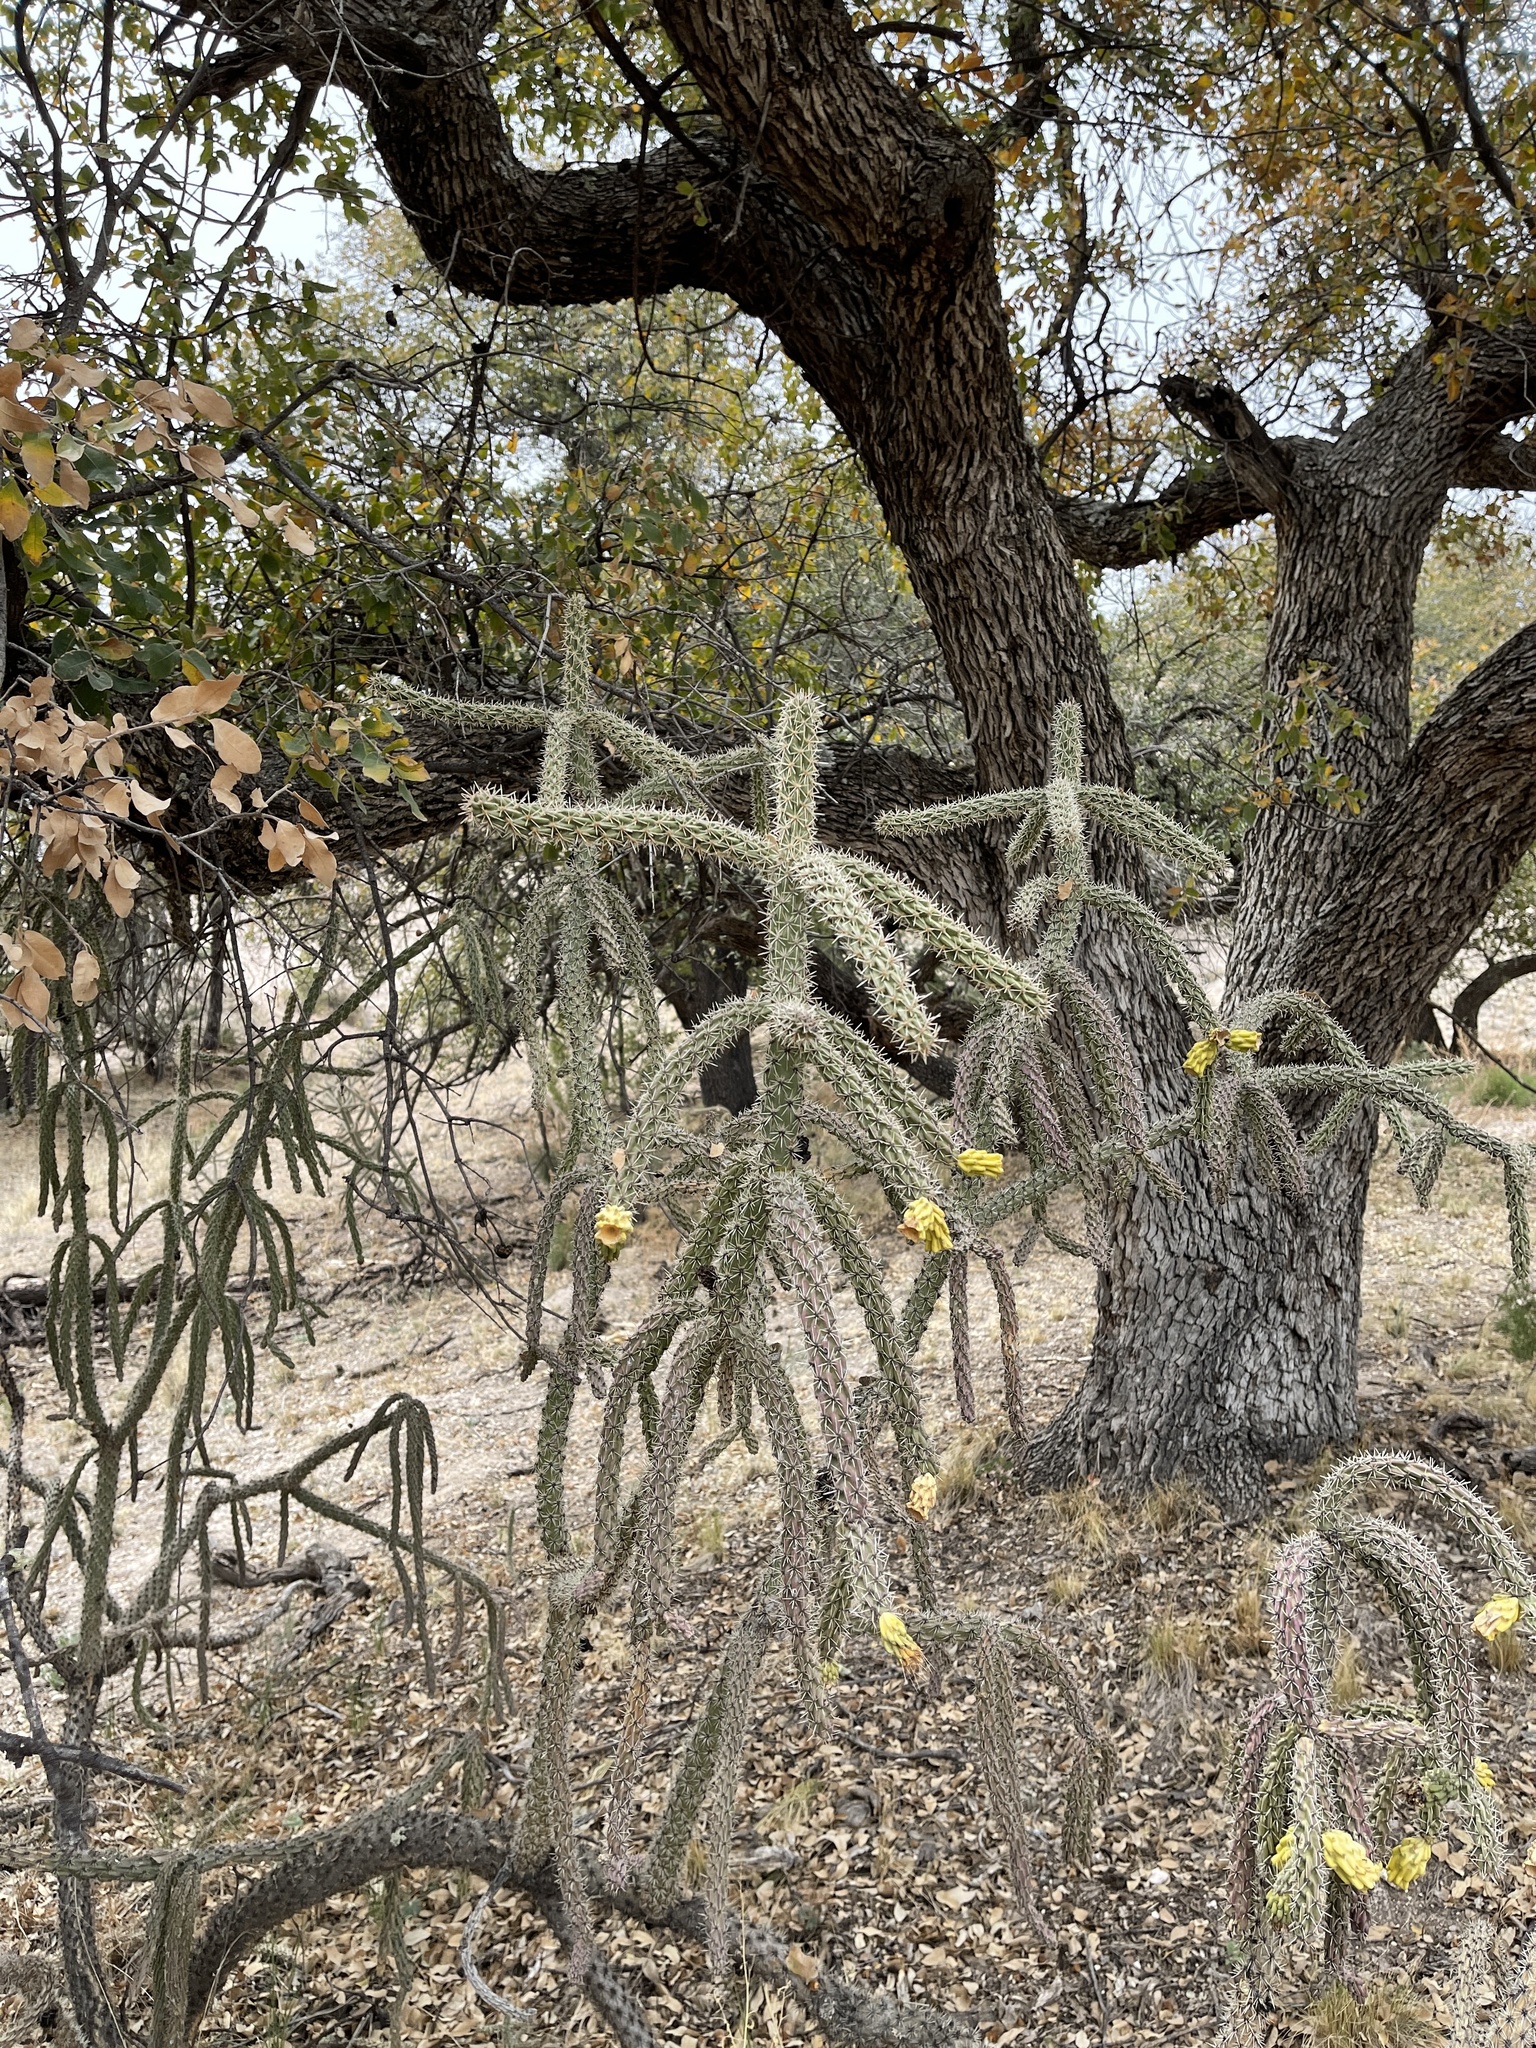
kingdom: Plantae
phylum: Tracheophyta
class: Magnoliopsida
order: Caryophyllales
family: Cactaceae
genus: Cylindropuntia
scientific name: Cylindropuntia imbricata
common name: Candelabrum cactus
